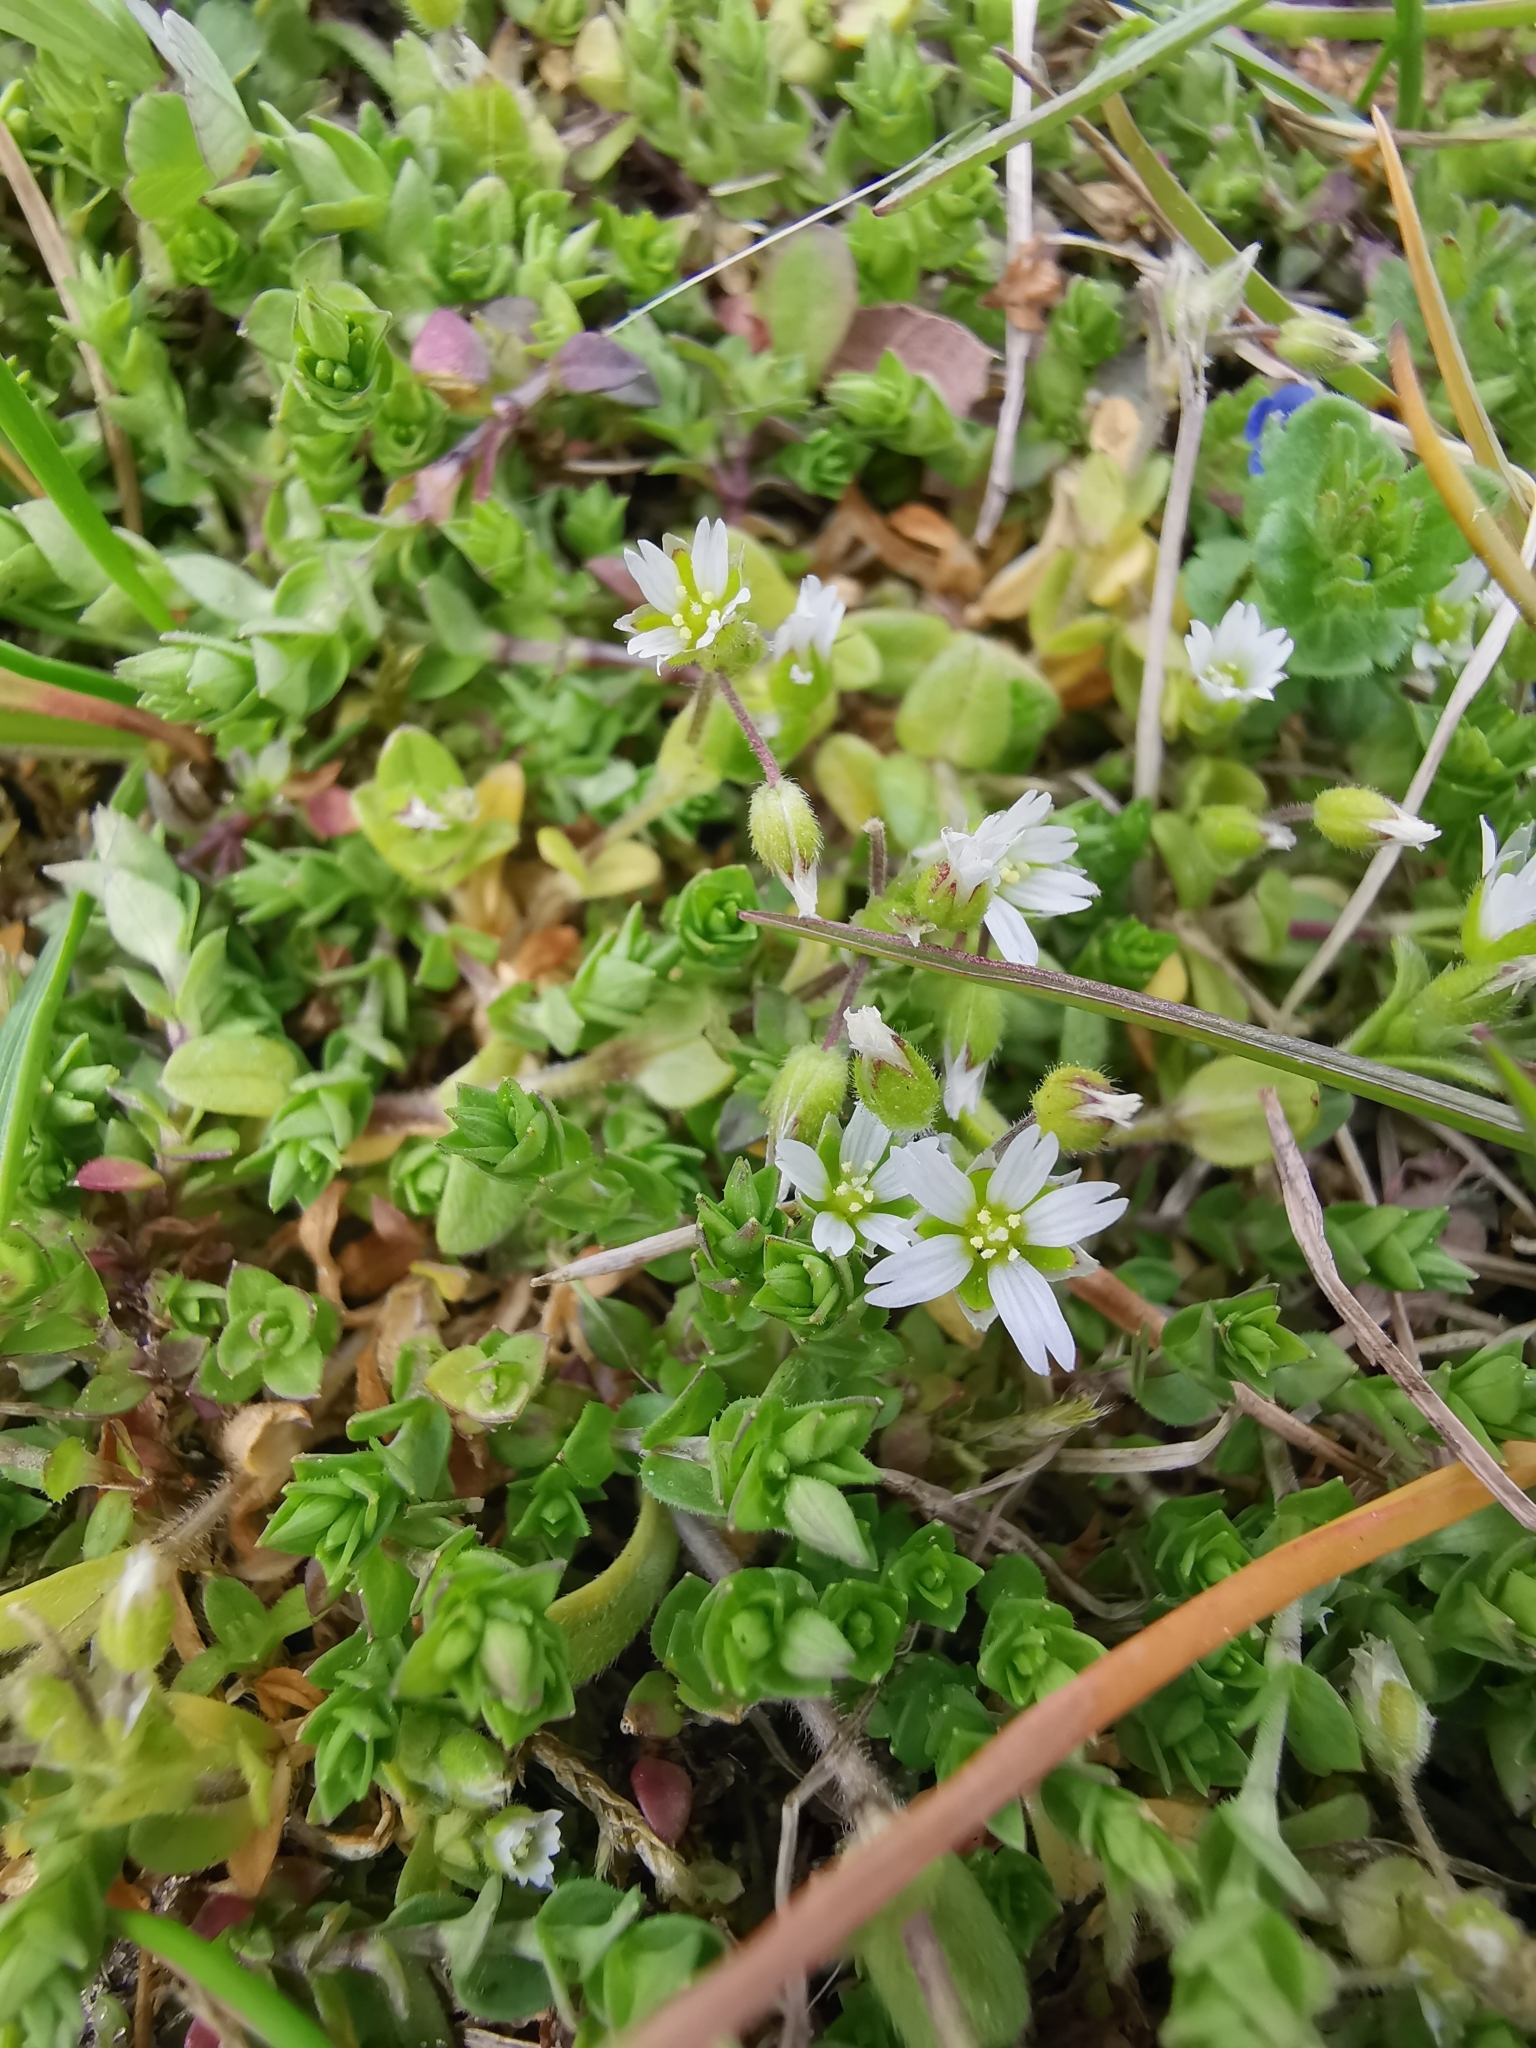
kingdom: Plantae
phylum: Tracheophyta
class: Magnoliopsida
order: Caryophyllales
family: Caryophyllaceae
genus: Cerastium
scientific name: Cerastium semidecandrum
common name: Little mouse-ear
